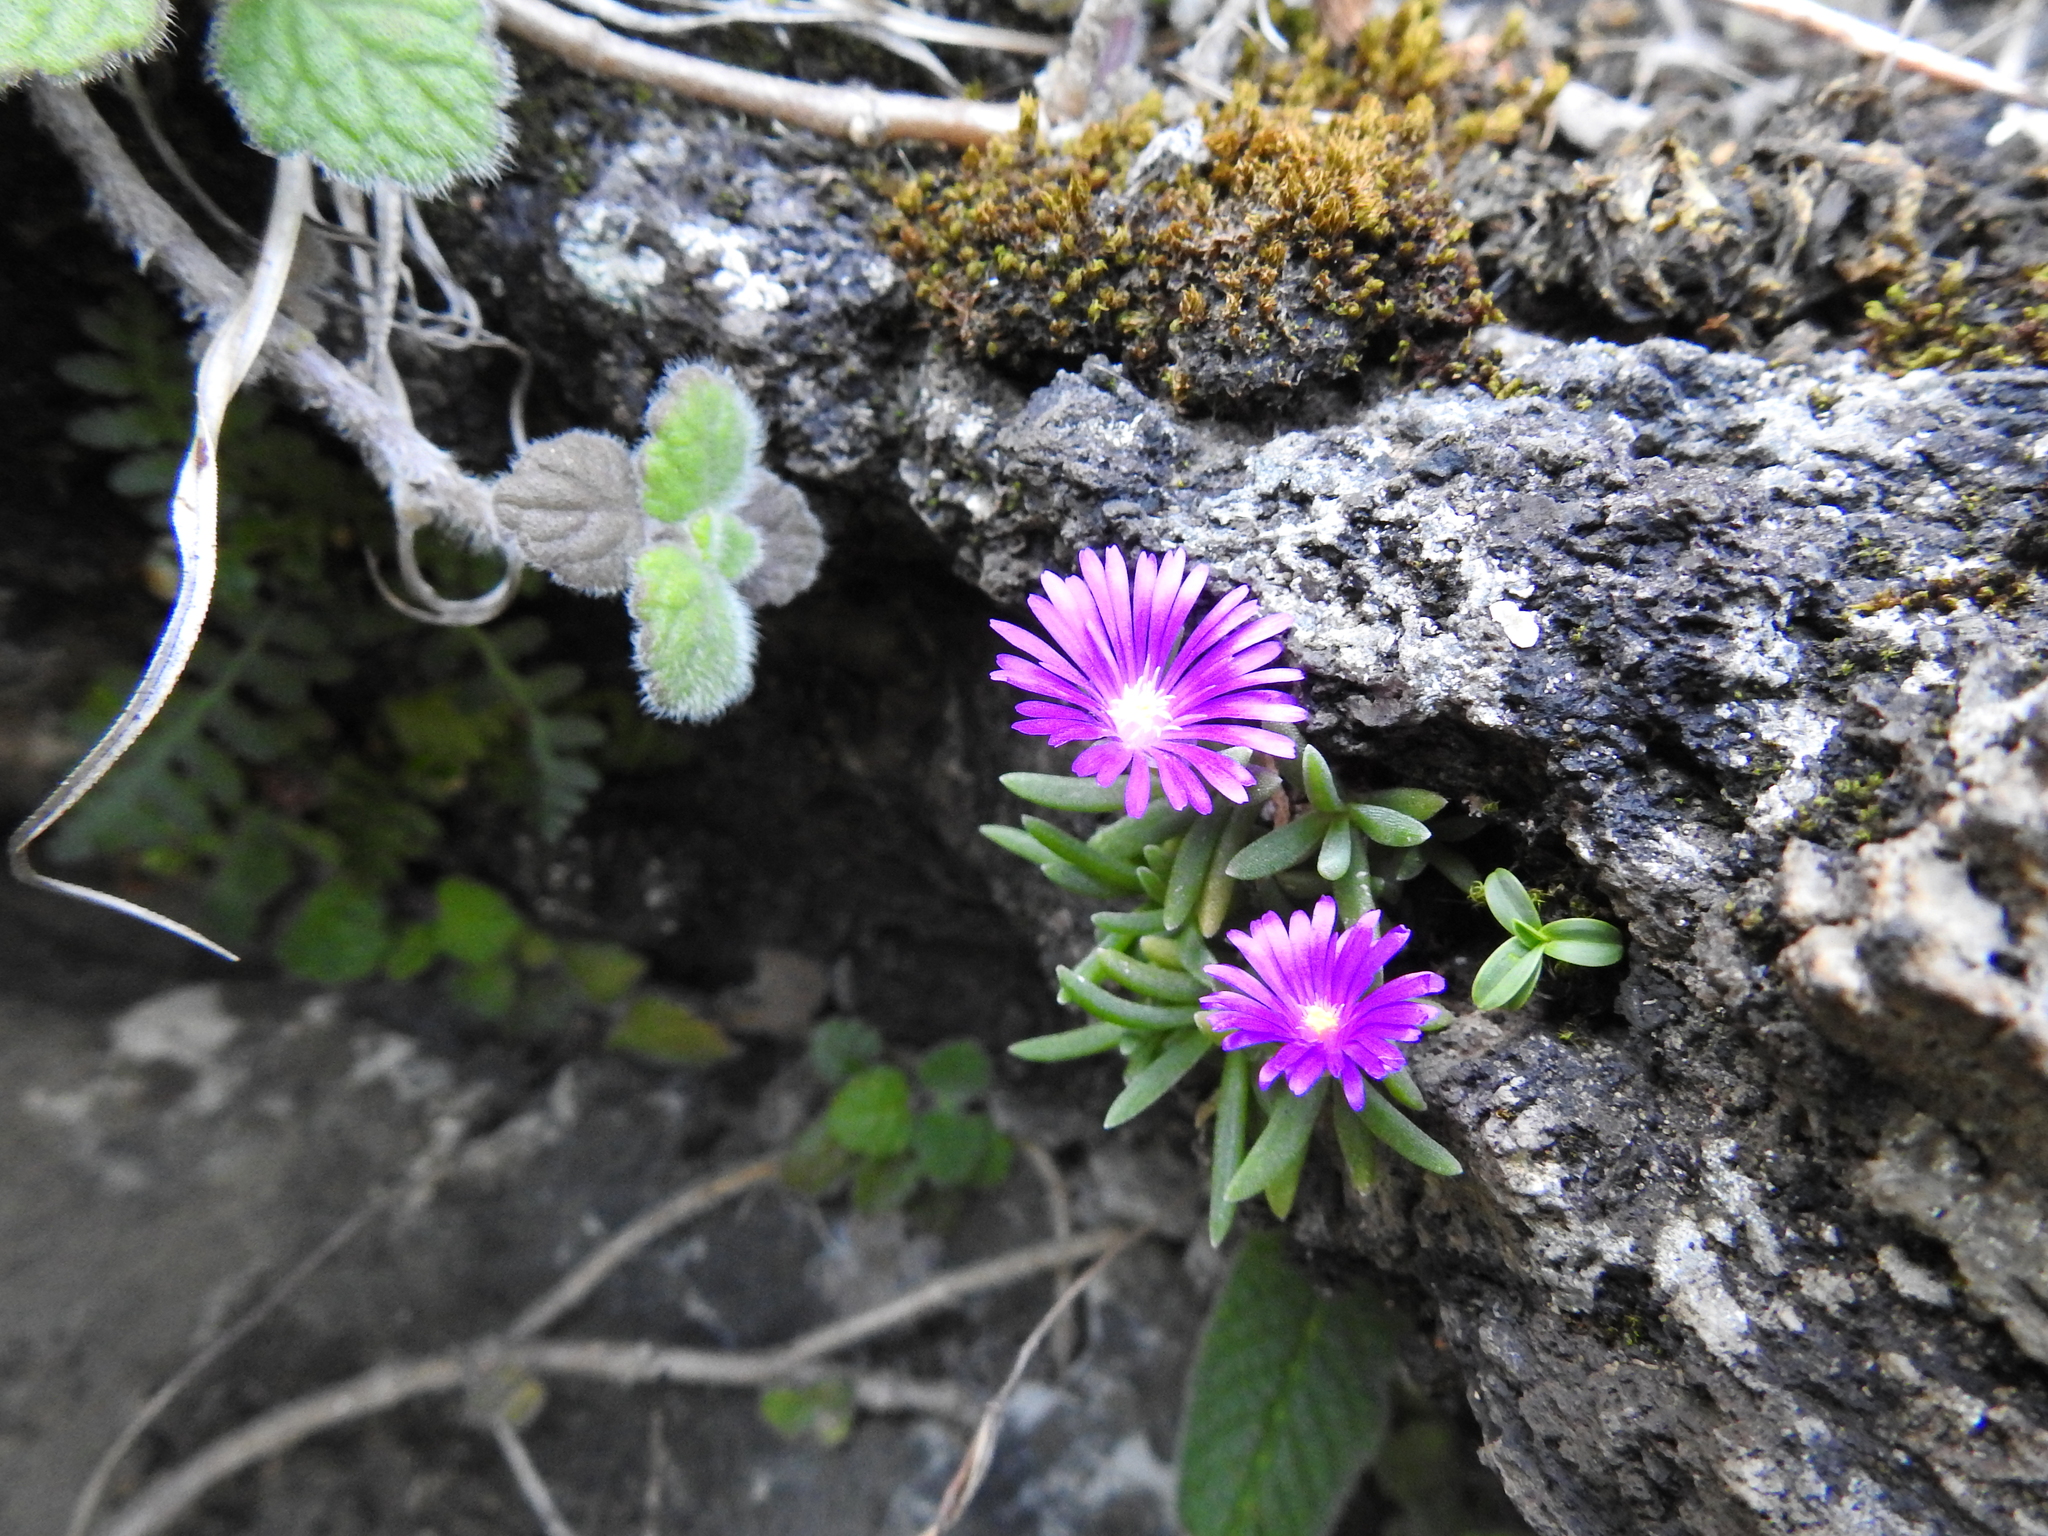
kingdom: Plantae
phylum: Tracheophyta
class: Magnoliopsida
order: Caryophyllales
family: Aizoaceae
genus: Delosperma
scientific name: Delosperma vandermerwei
